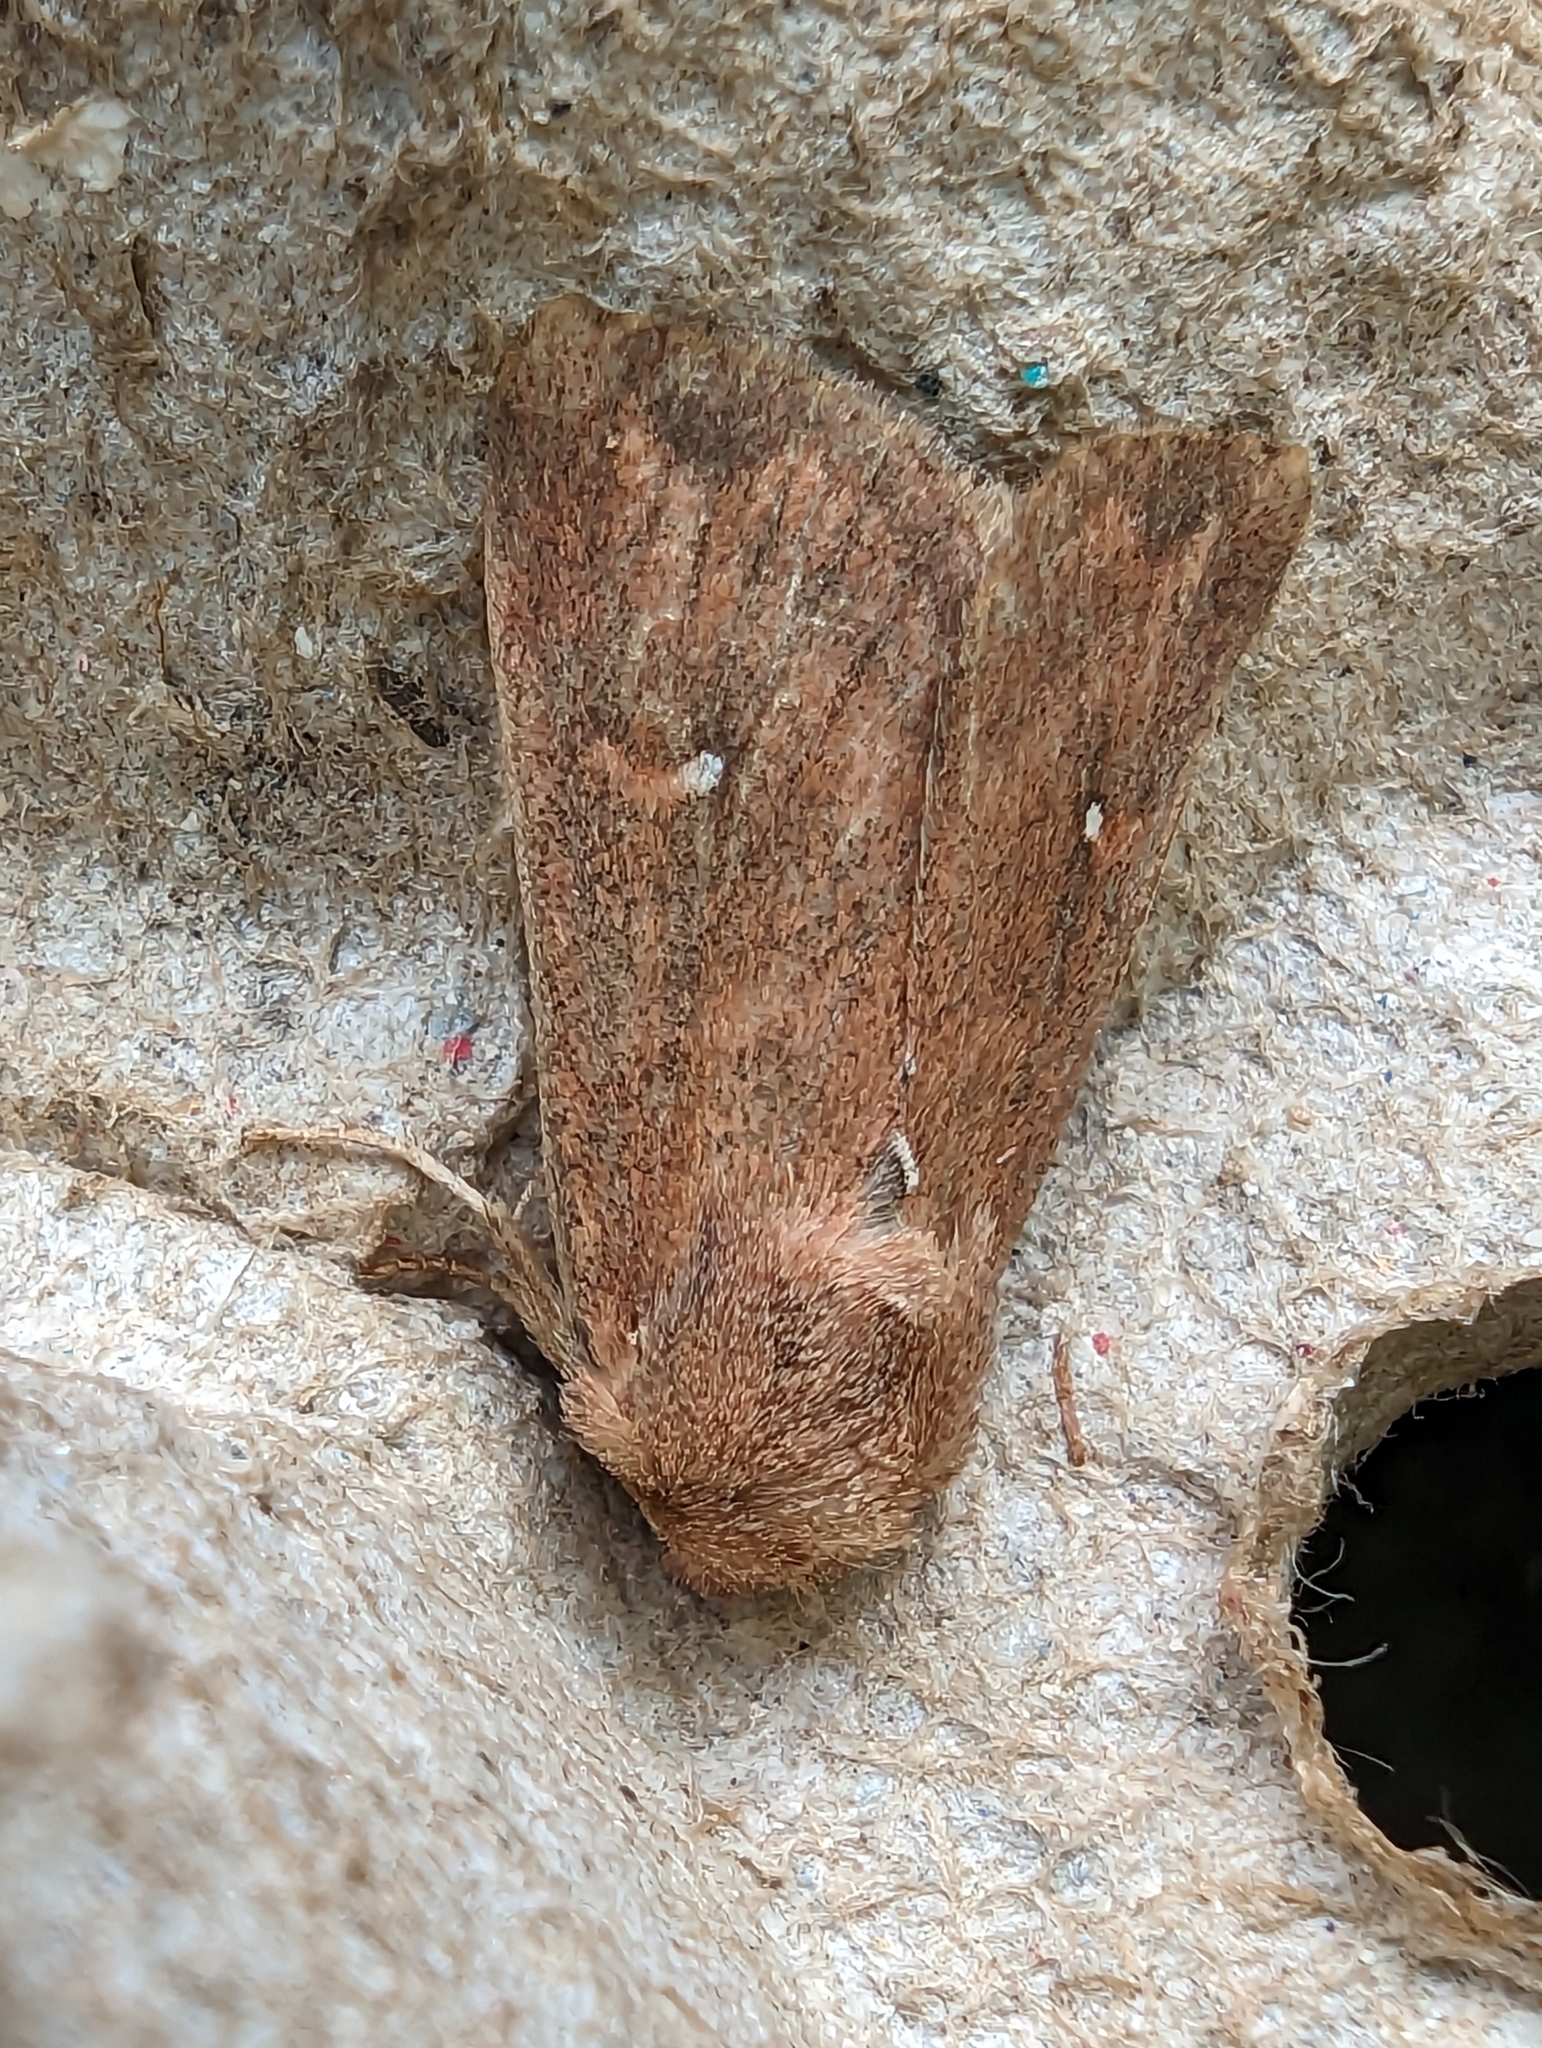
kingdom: Animalia
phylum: Arthropoda
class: Insecta
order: Lepidoptera
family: Noctuidae
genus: Mythimna
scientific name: Mythimna albipuncta
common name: White-point
